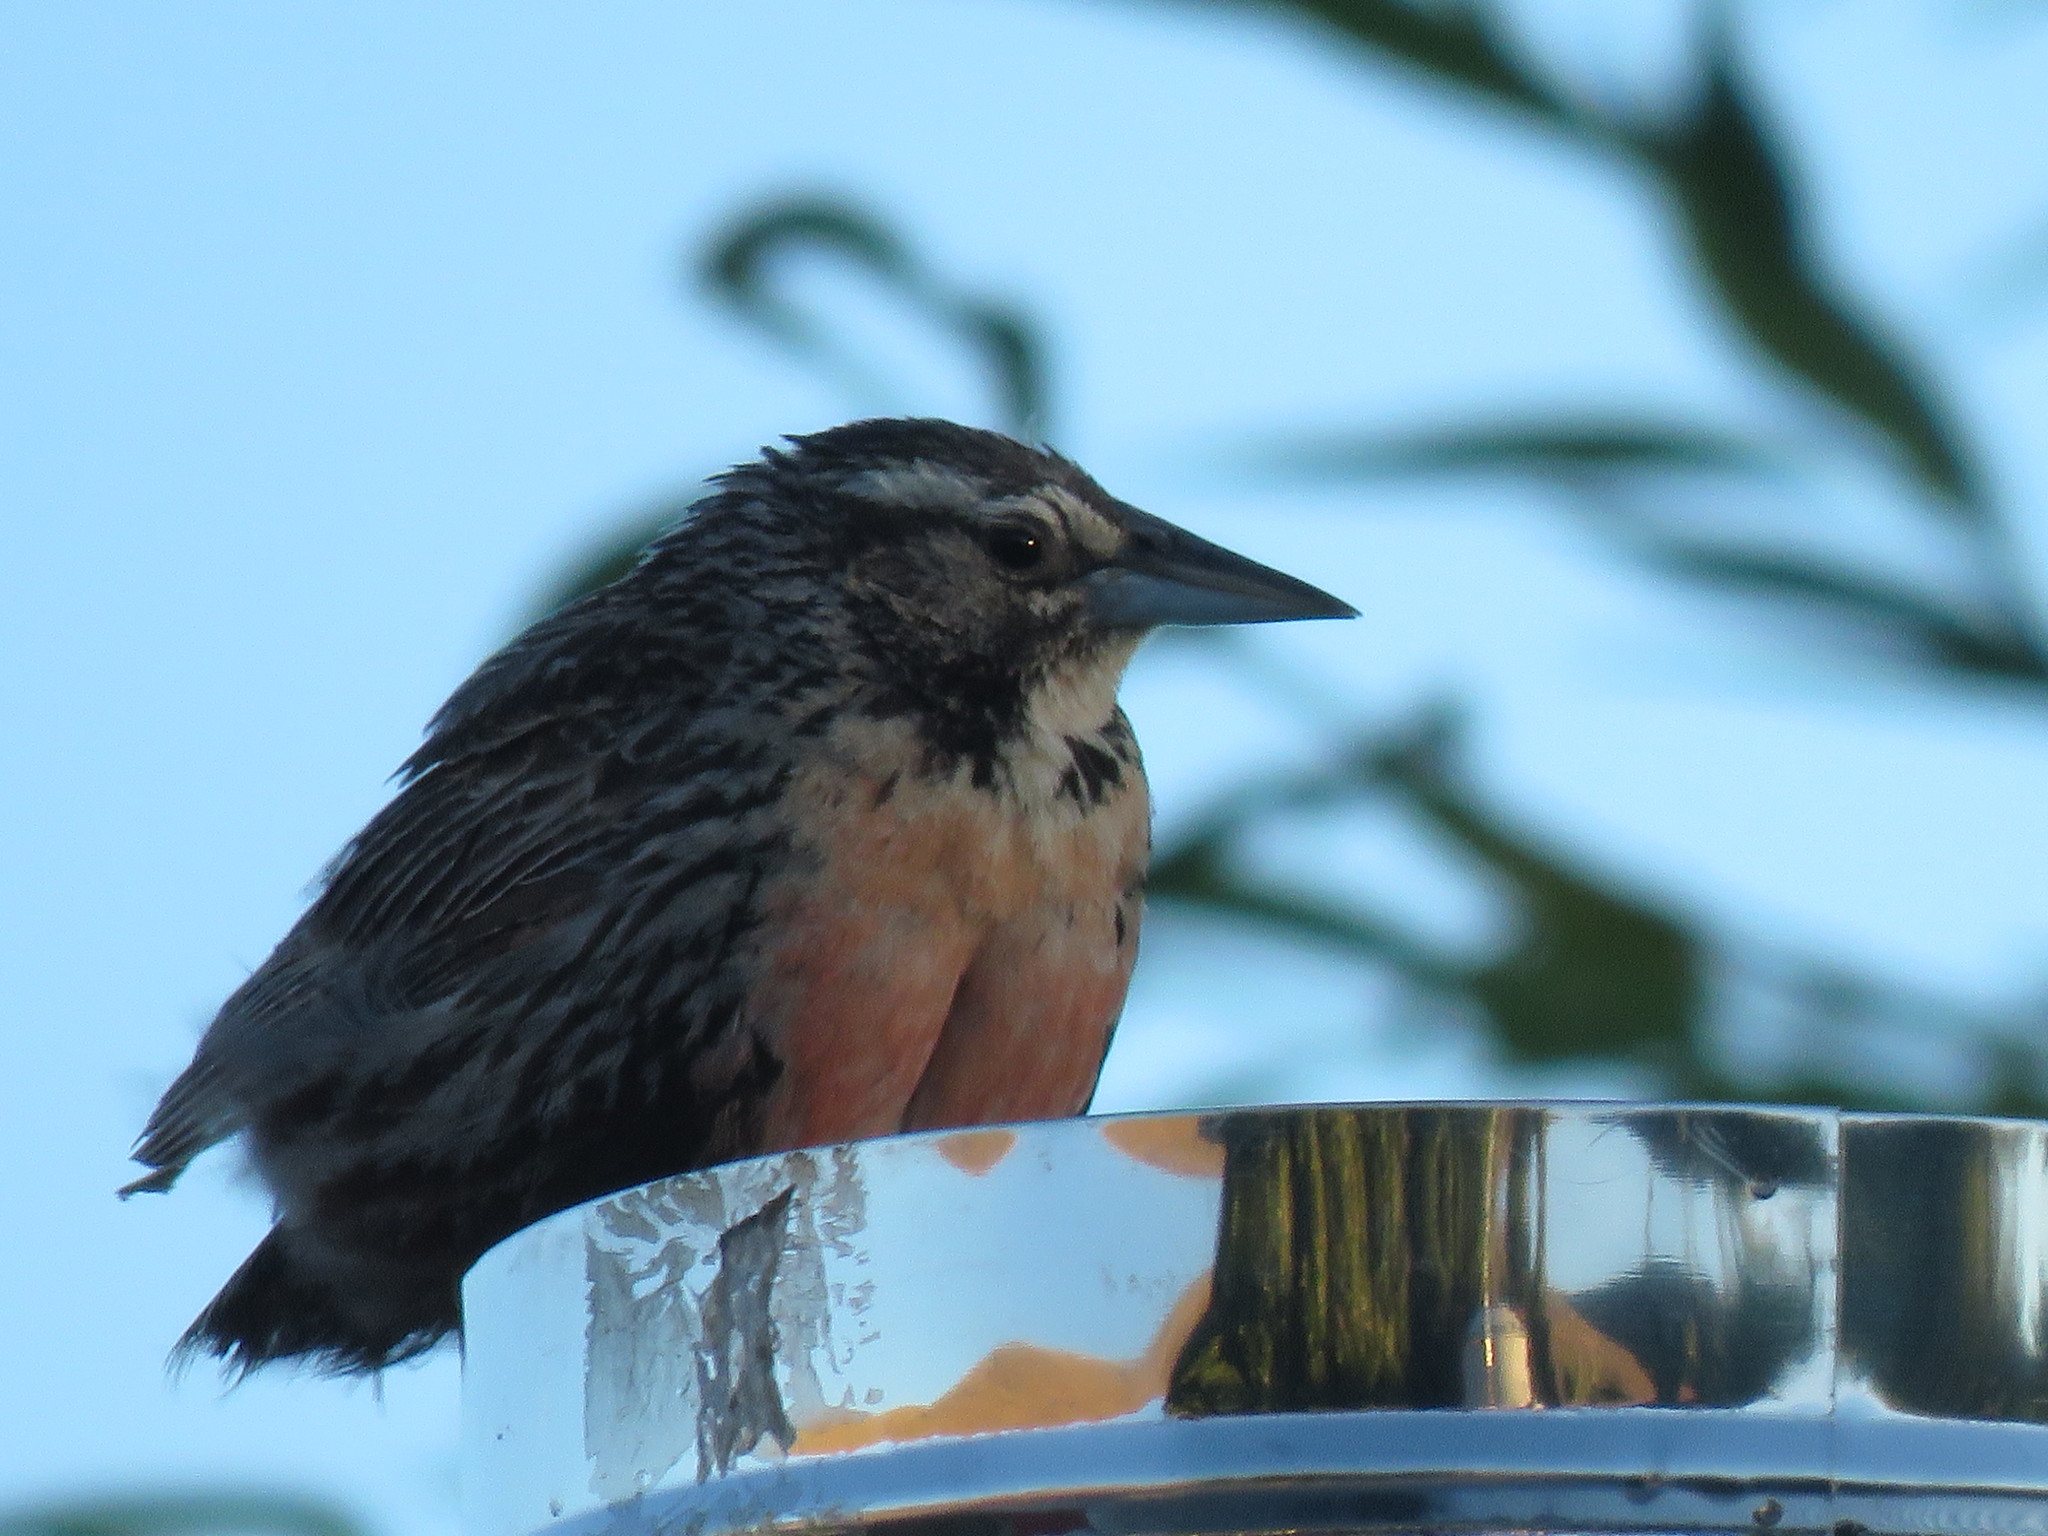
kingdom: Animalia
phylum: Chordata
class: Aves
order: Passeriformes
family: Icteridae
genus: Sturnella
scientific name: Sturnella loyca
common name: Long-tailed meadowlark
